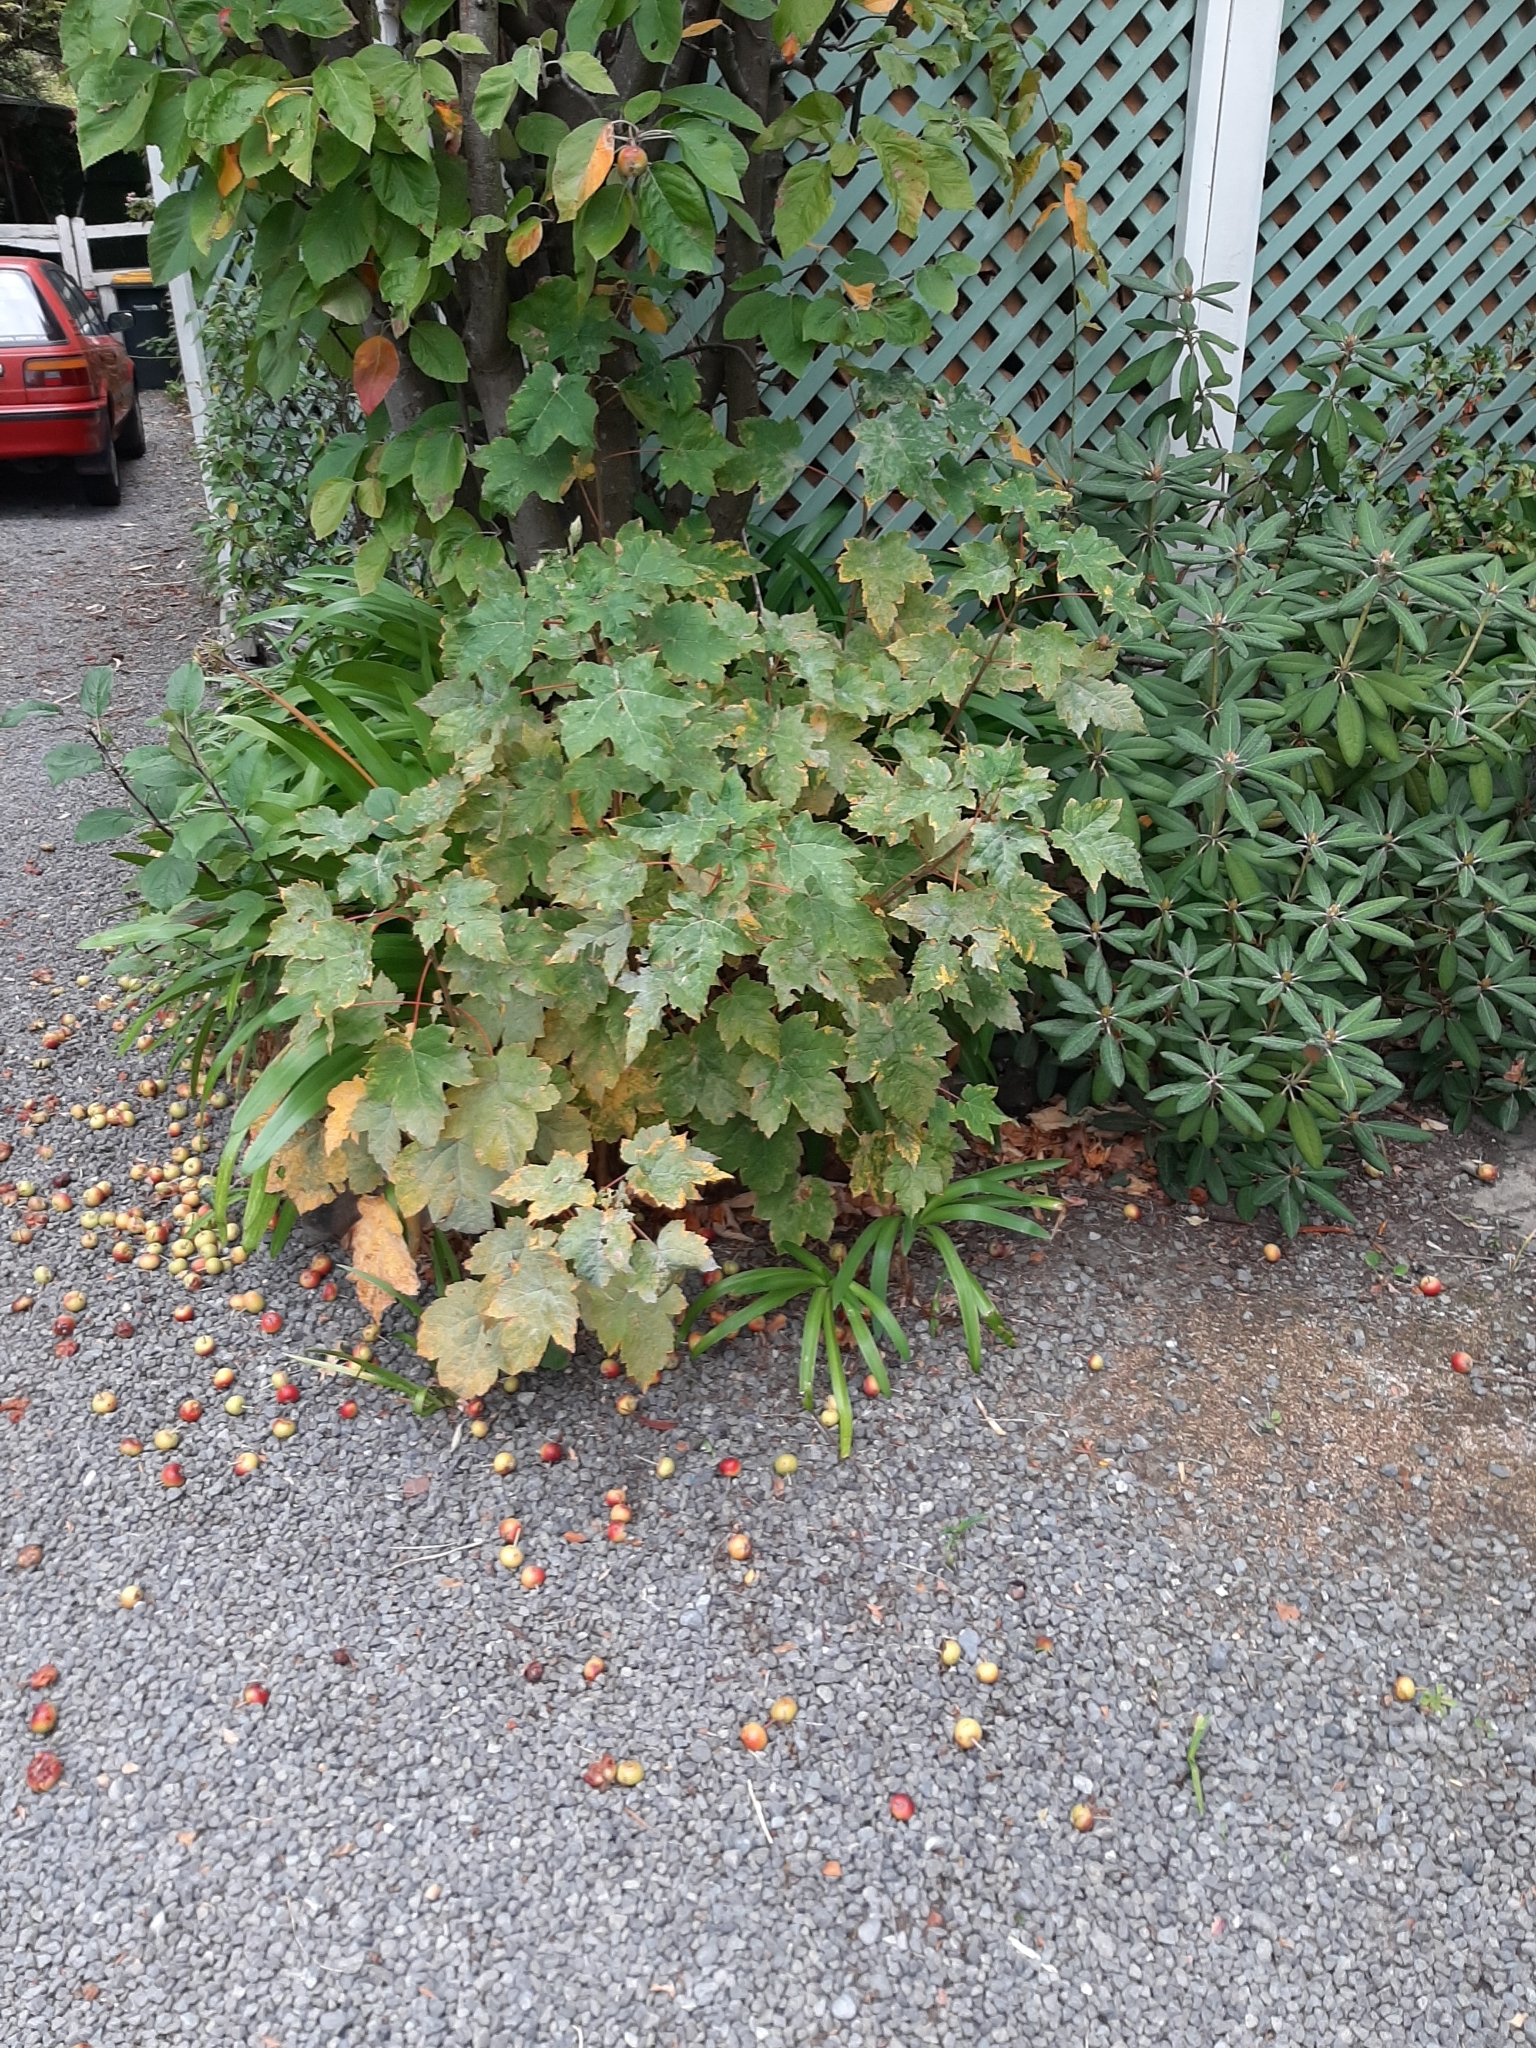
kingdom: Plantae
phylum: Tracheophyta
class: Magnoliopsida
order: Sapindales
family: Sapindaceae
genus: Acer
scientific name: Acer pseudoplatanus
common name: Sycamore
